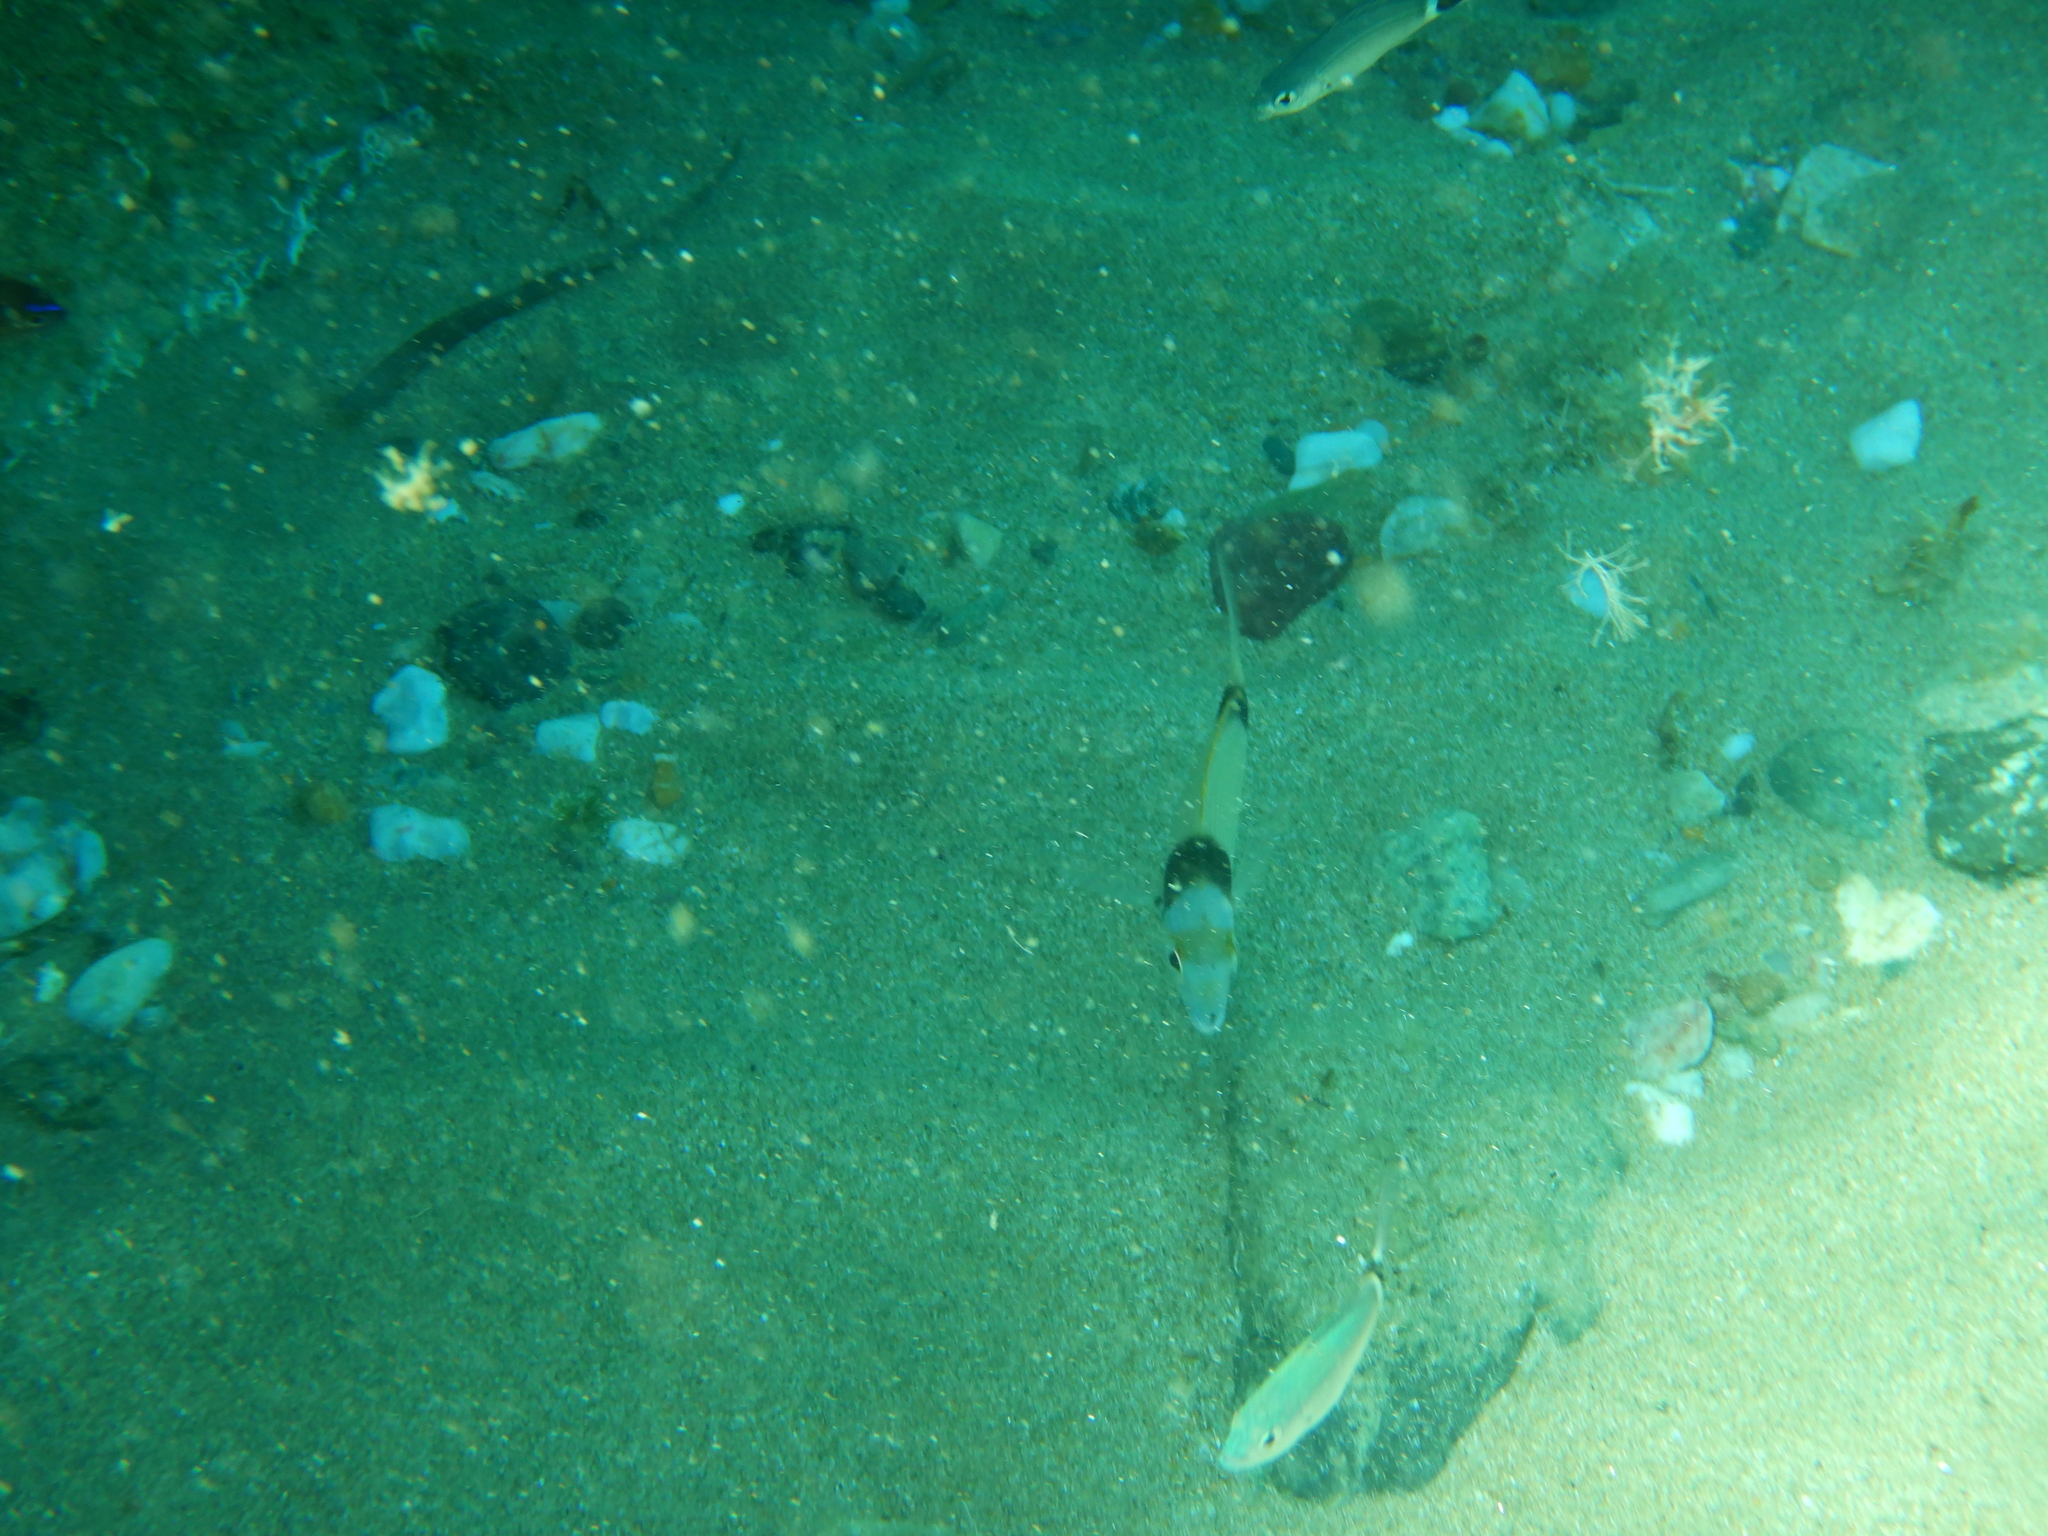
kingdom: Animalia
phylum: Chordata
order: Perciformes
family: Sparidae
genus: Diplodus
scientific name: Diplodus vulgaris
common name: Common two-banded seabream
